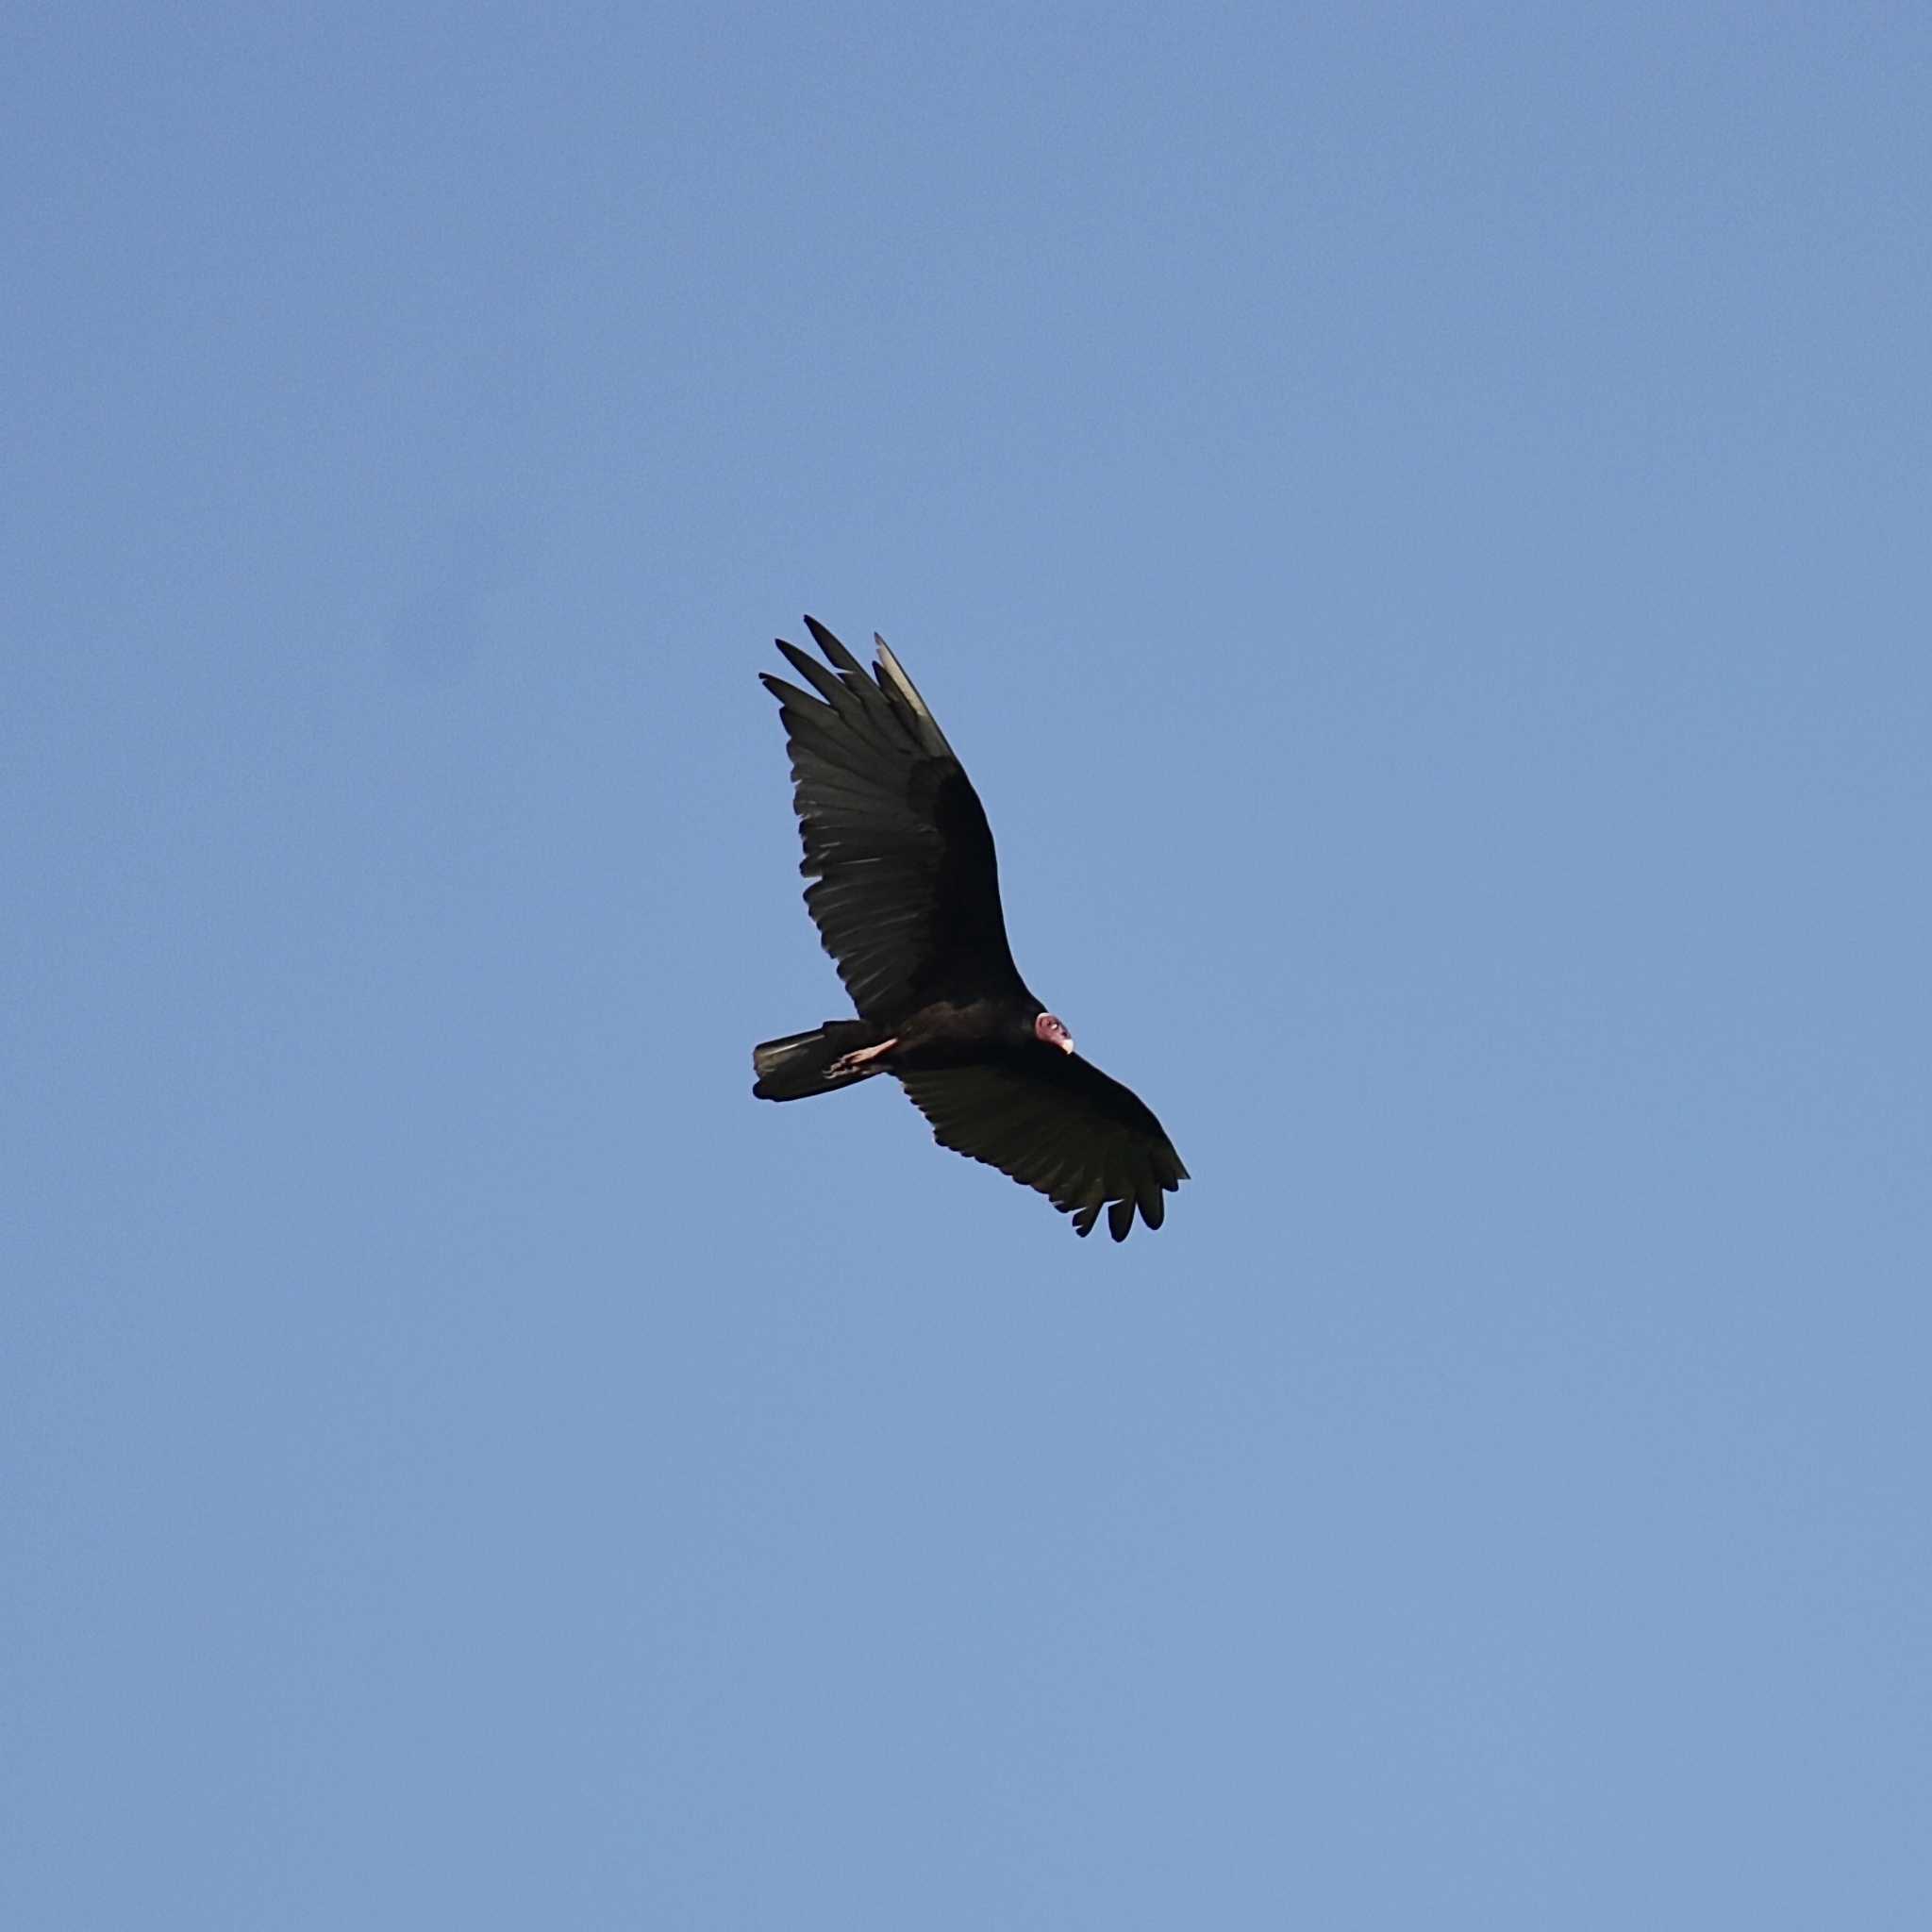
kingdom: Animalia
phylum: Chordata
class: Aves
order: Accipitriformes
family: Cathartidae
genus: Cathartes
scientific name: Cathartes aura
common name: Turkey vulture
